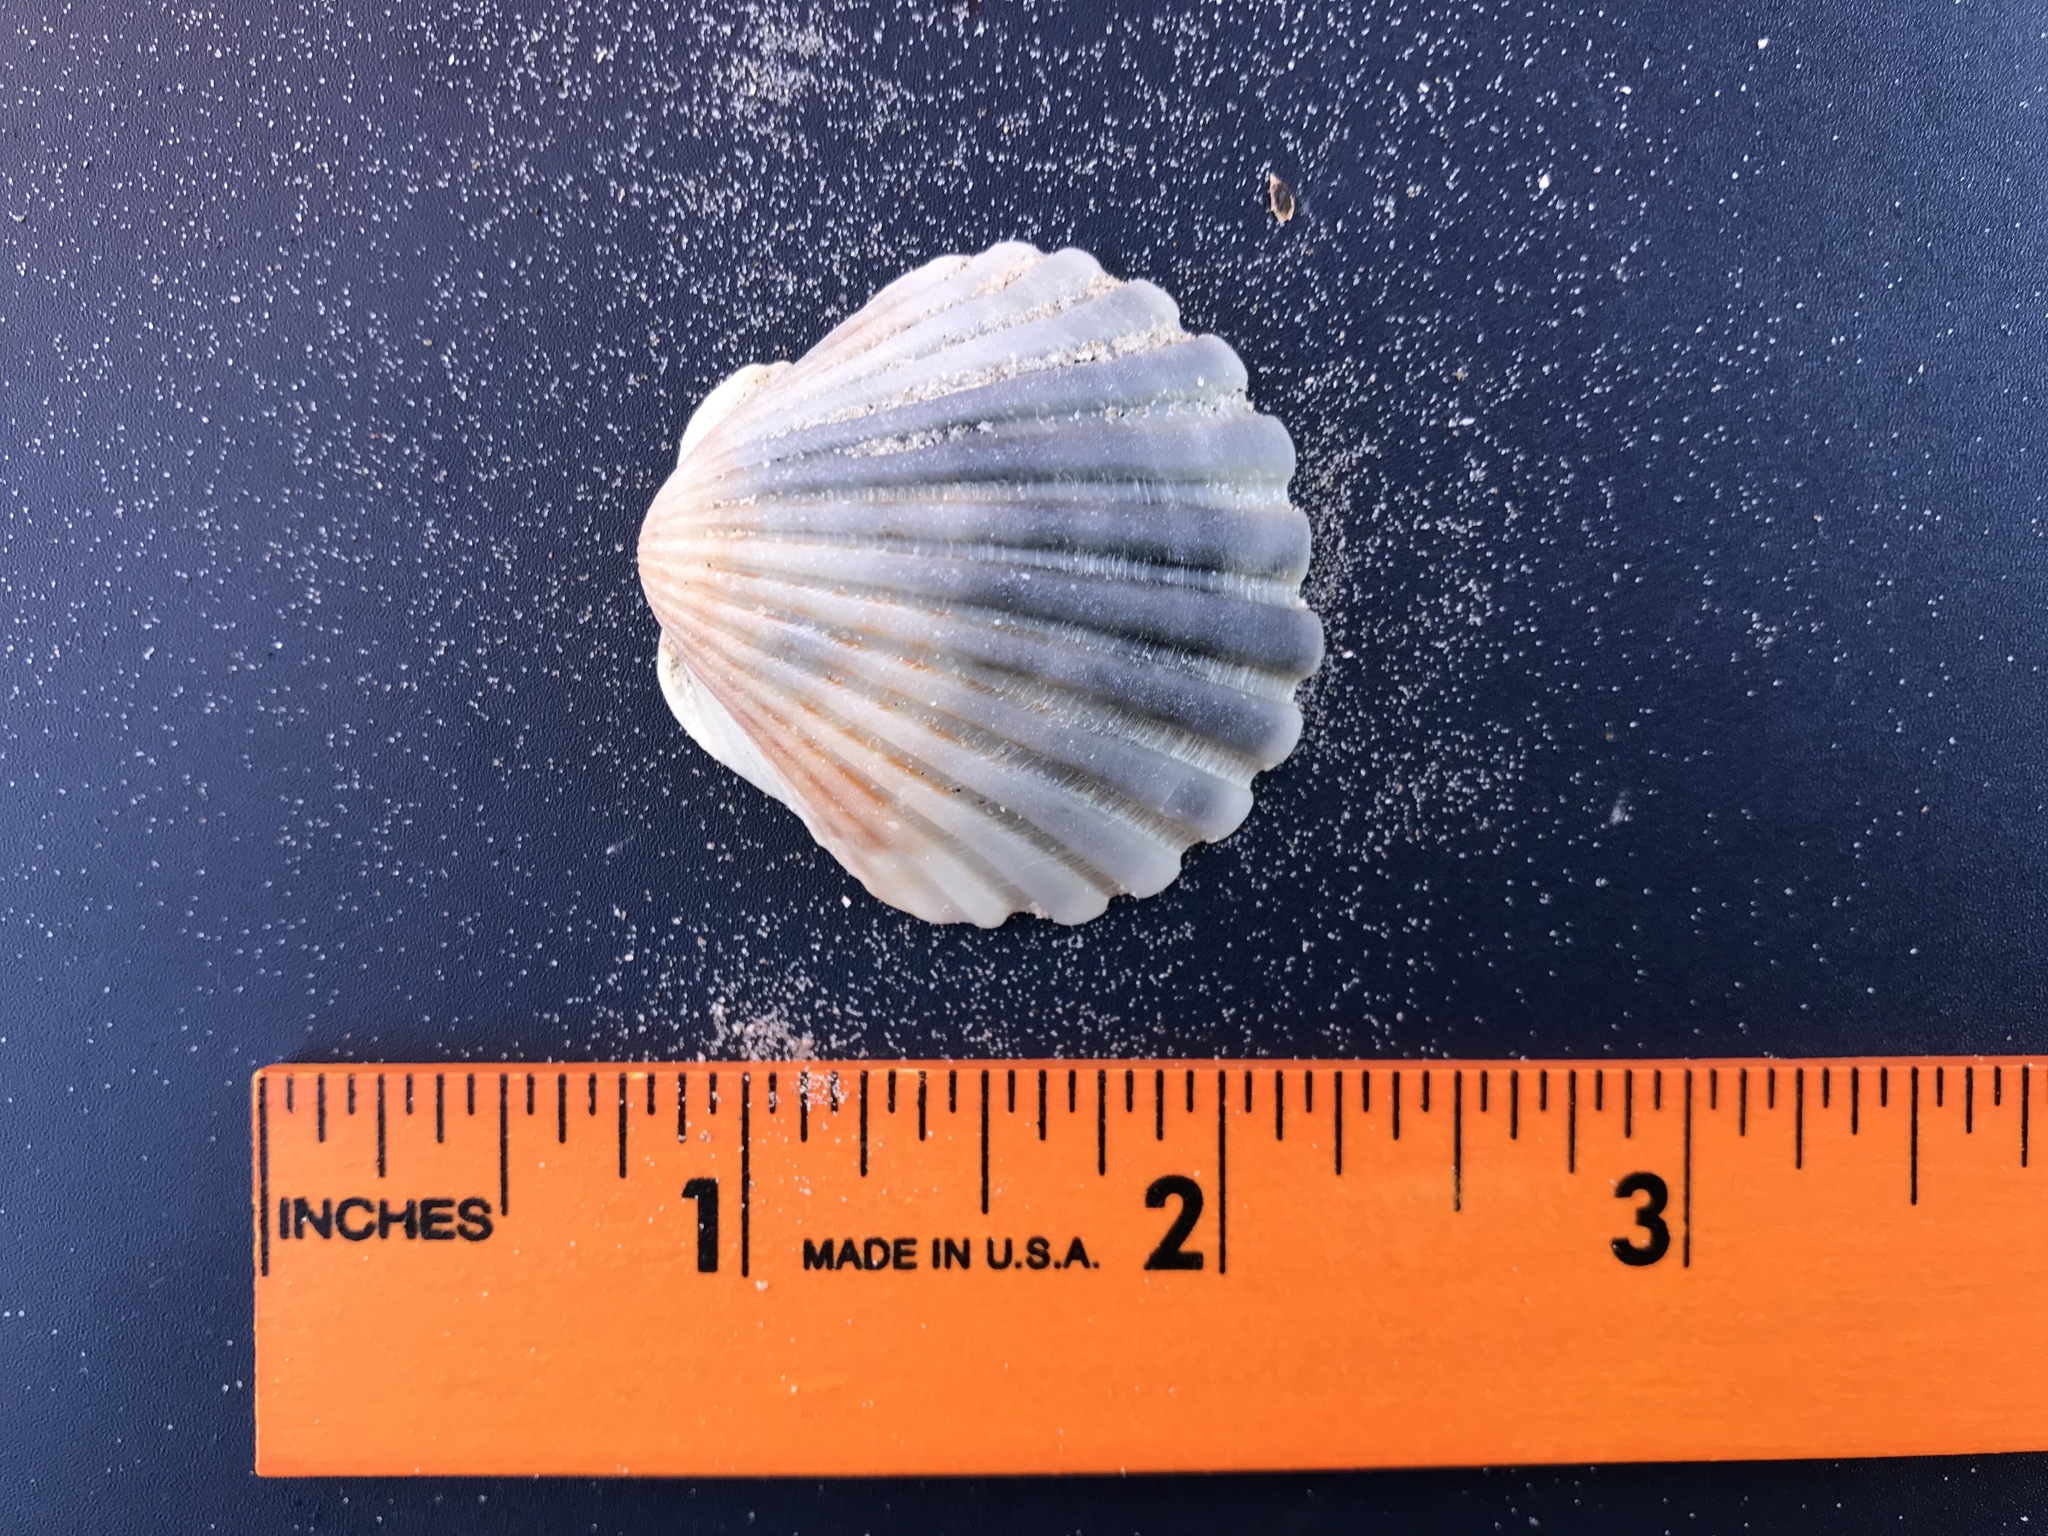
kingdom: Animalia
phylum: Mollusca
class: Bivalvia
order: Pectinida
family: Pectinidae
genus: Argopecten
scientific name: Argopecten irradians
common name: Atlantic bay scallop
